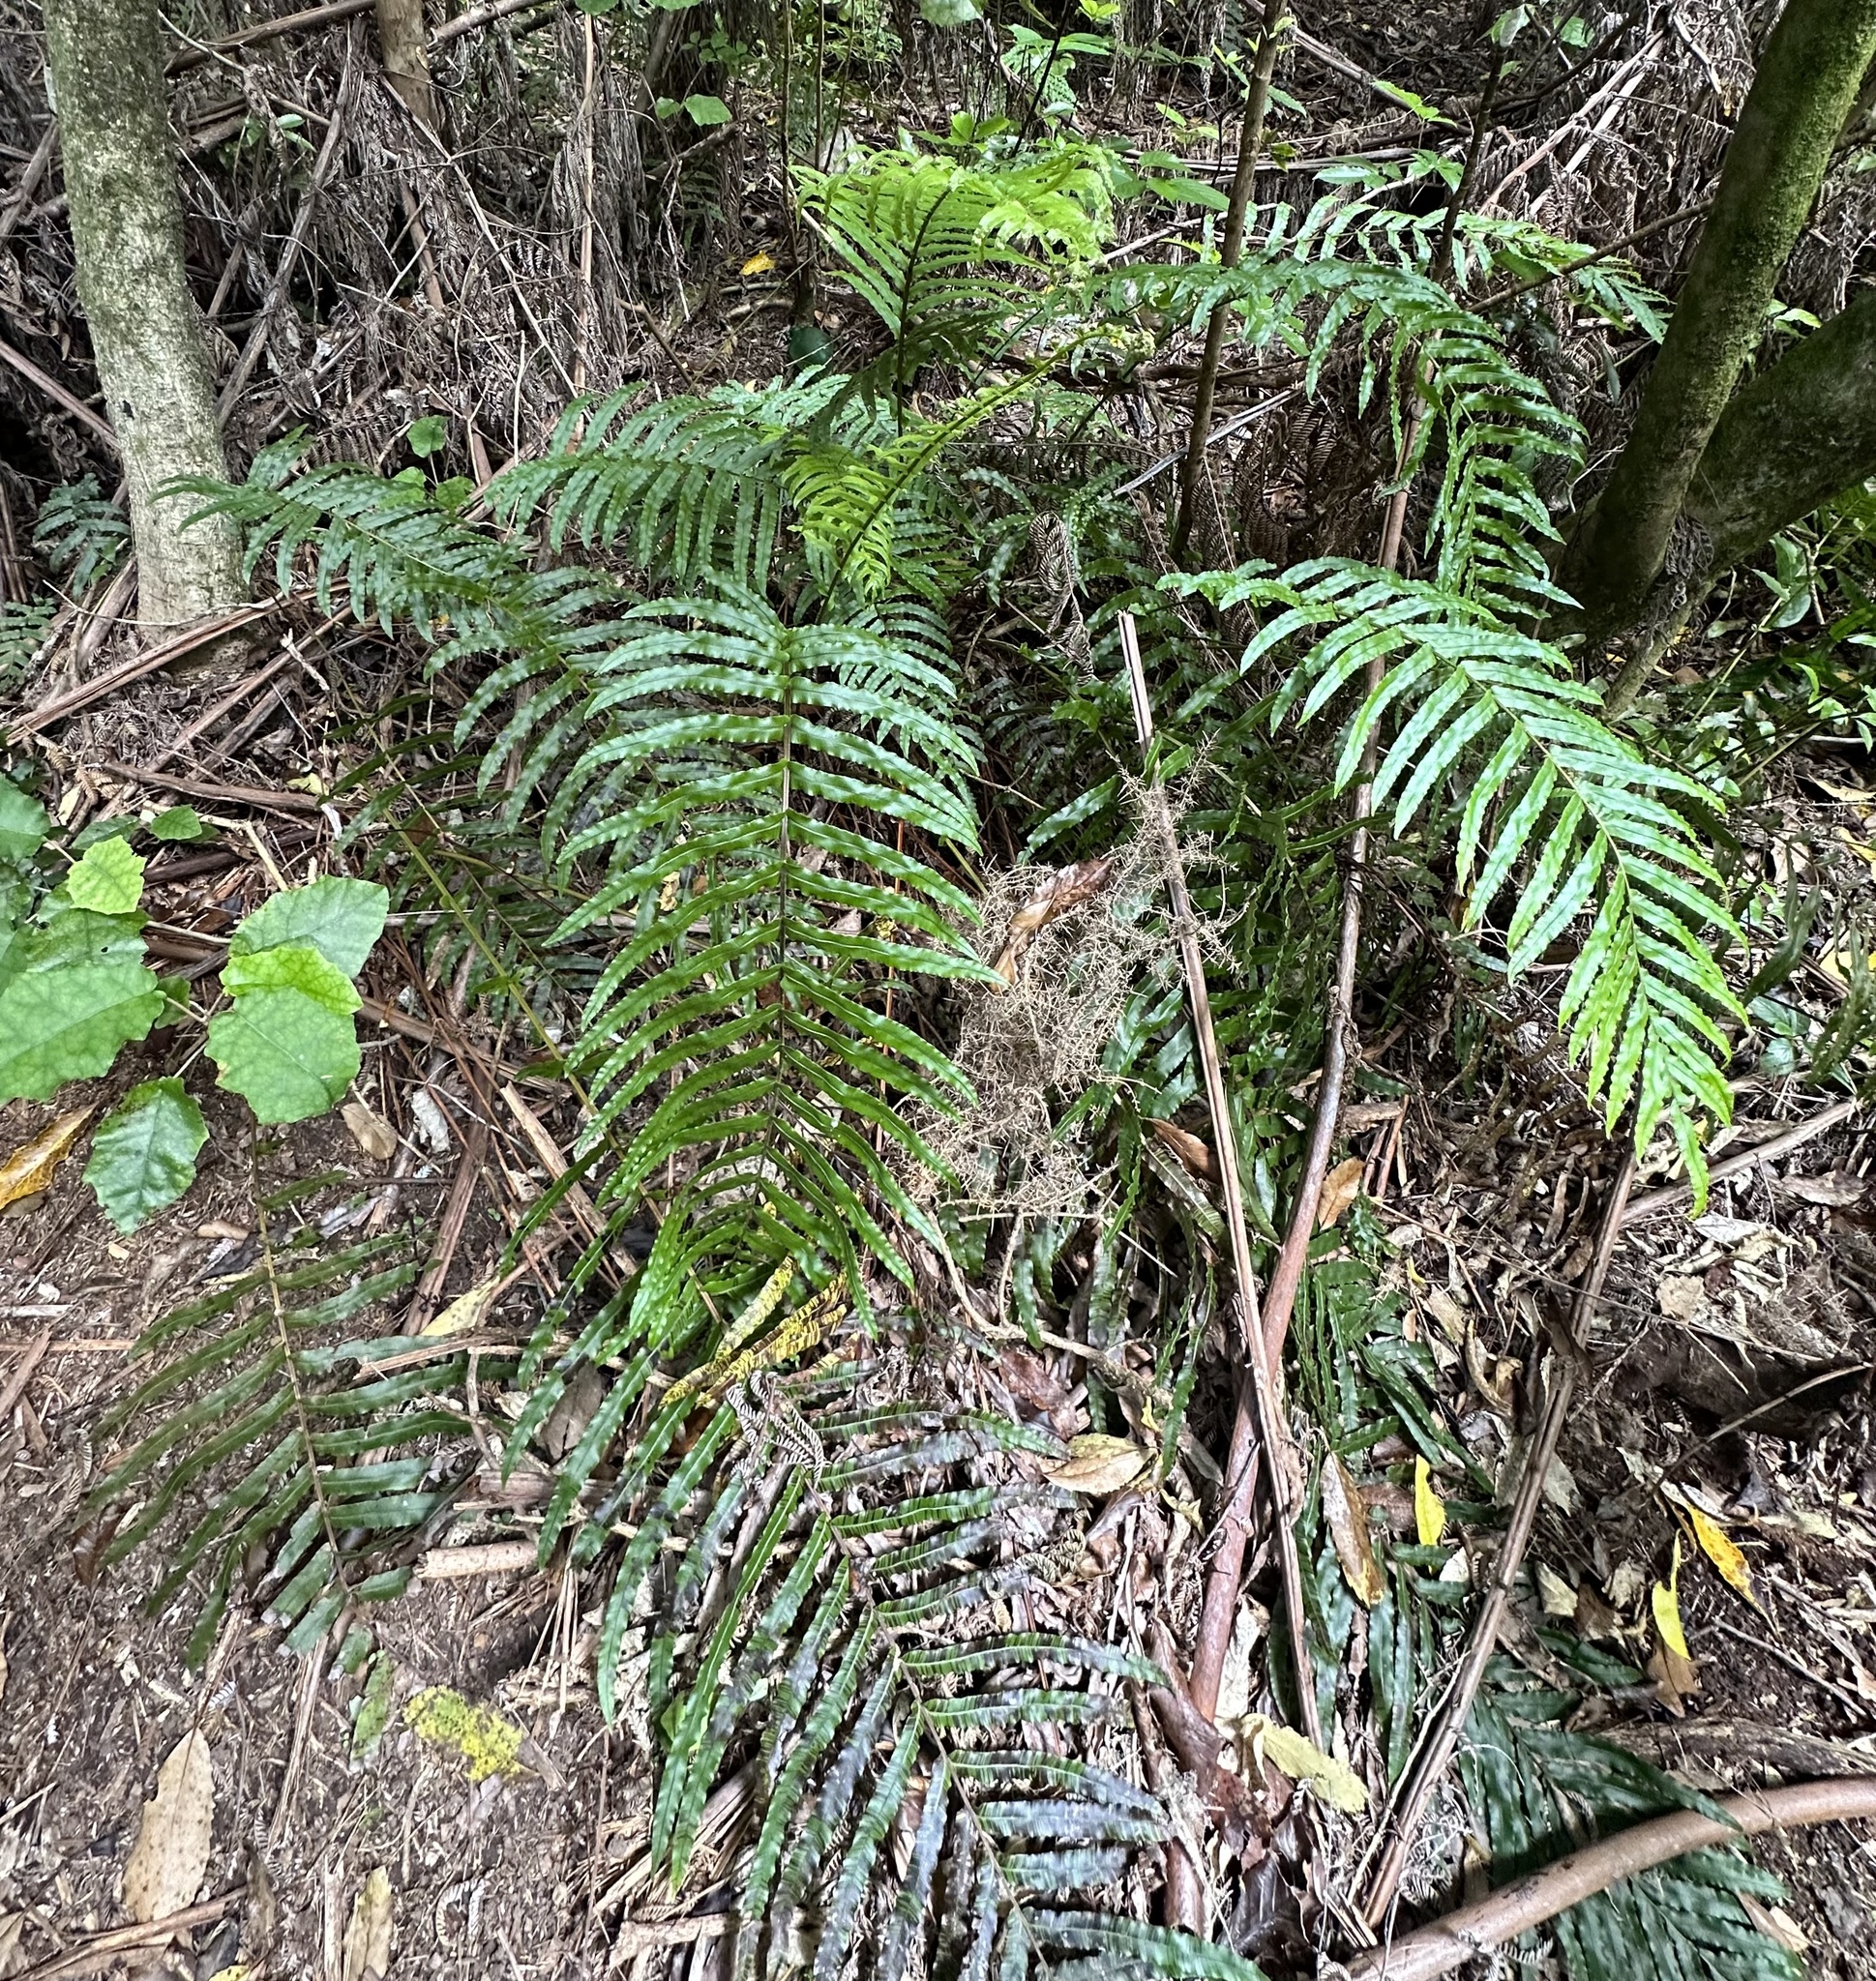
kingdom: Plantae
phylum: Tracheophyta
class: Polypodiopsida
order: Polypodiales
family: Blechnaceae
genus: Parablechnum
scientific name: Parablechnum novae-zelandiae
